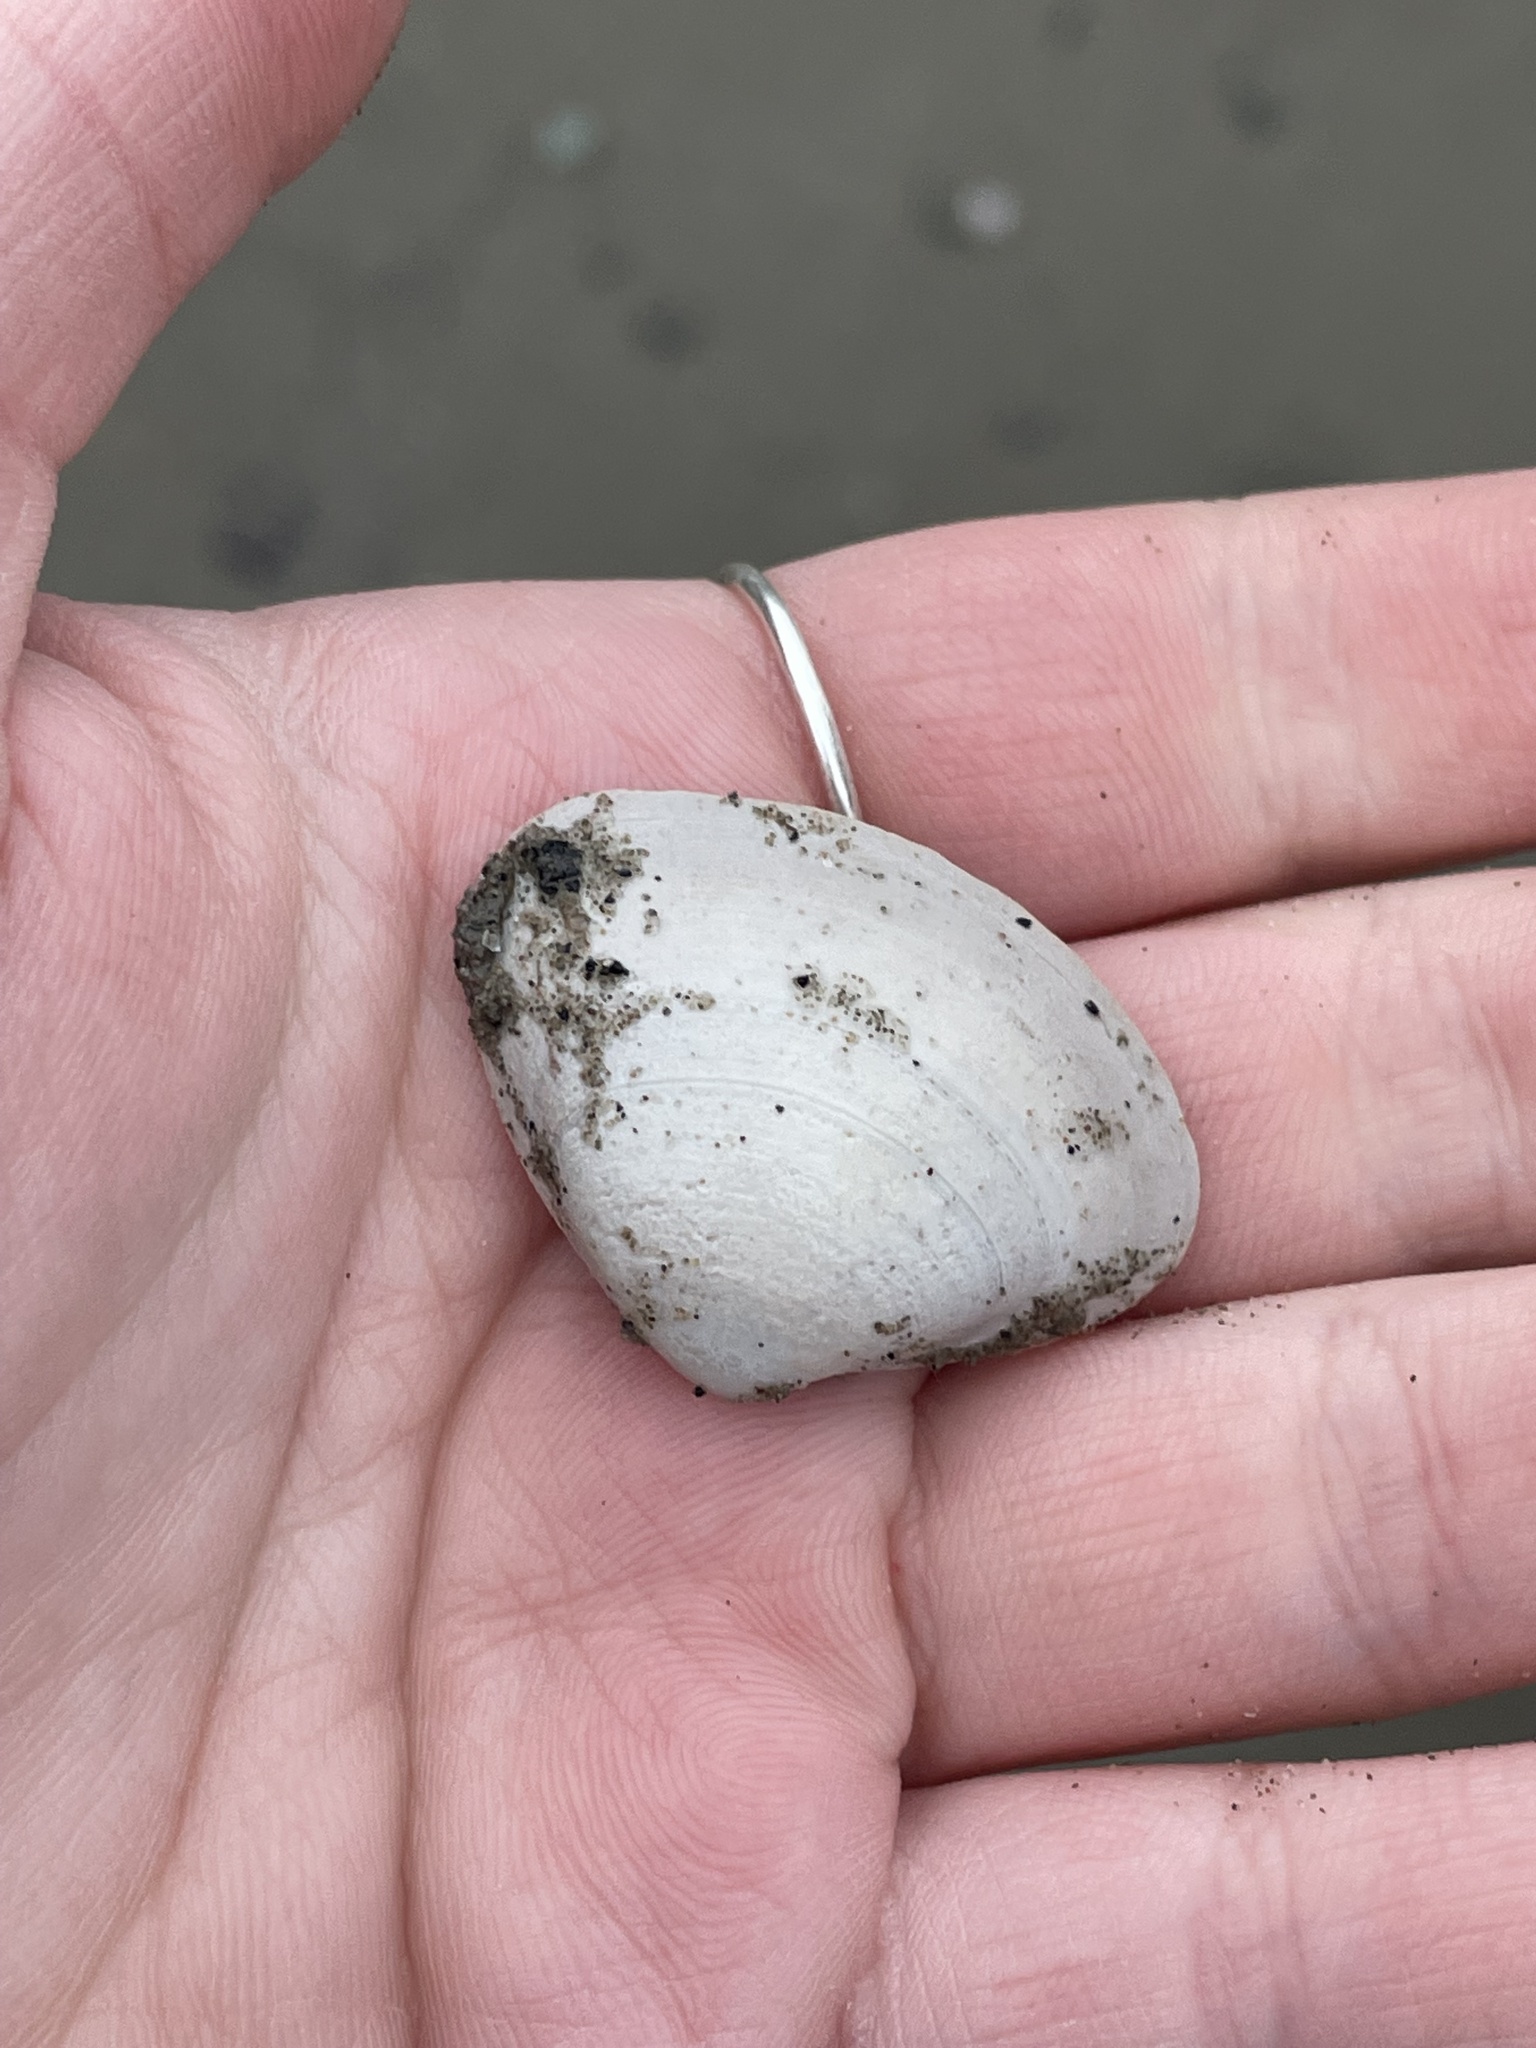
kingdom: Animalia
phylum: Mollusca
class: Bivalvia
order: Venerida
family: Mactridae
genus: Spisula
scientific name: Spisula solidissima
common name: Atlantic surf clam
